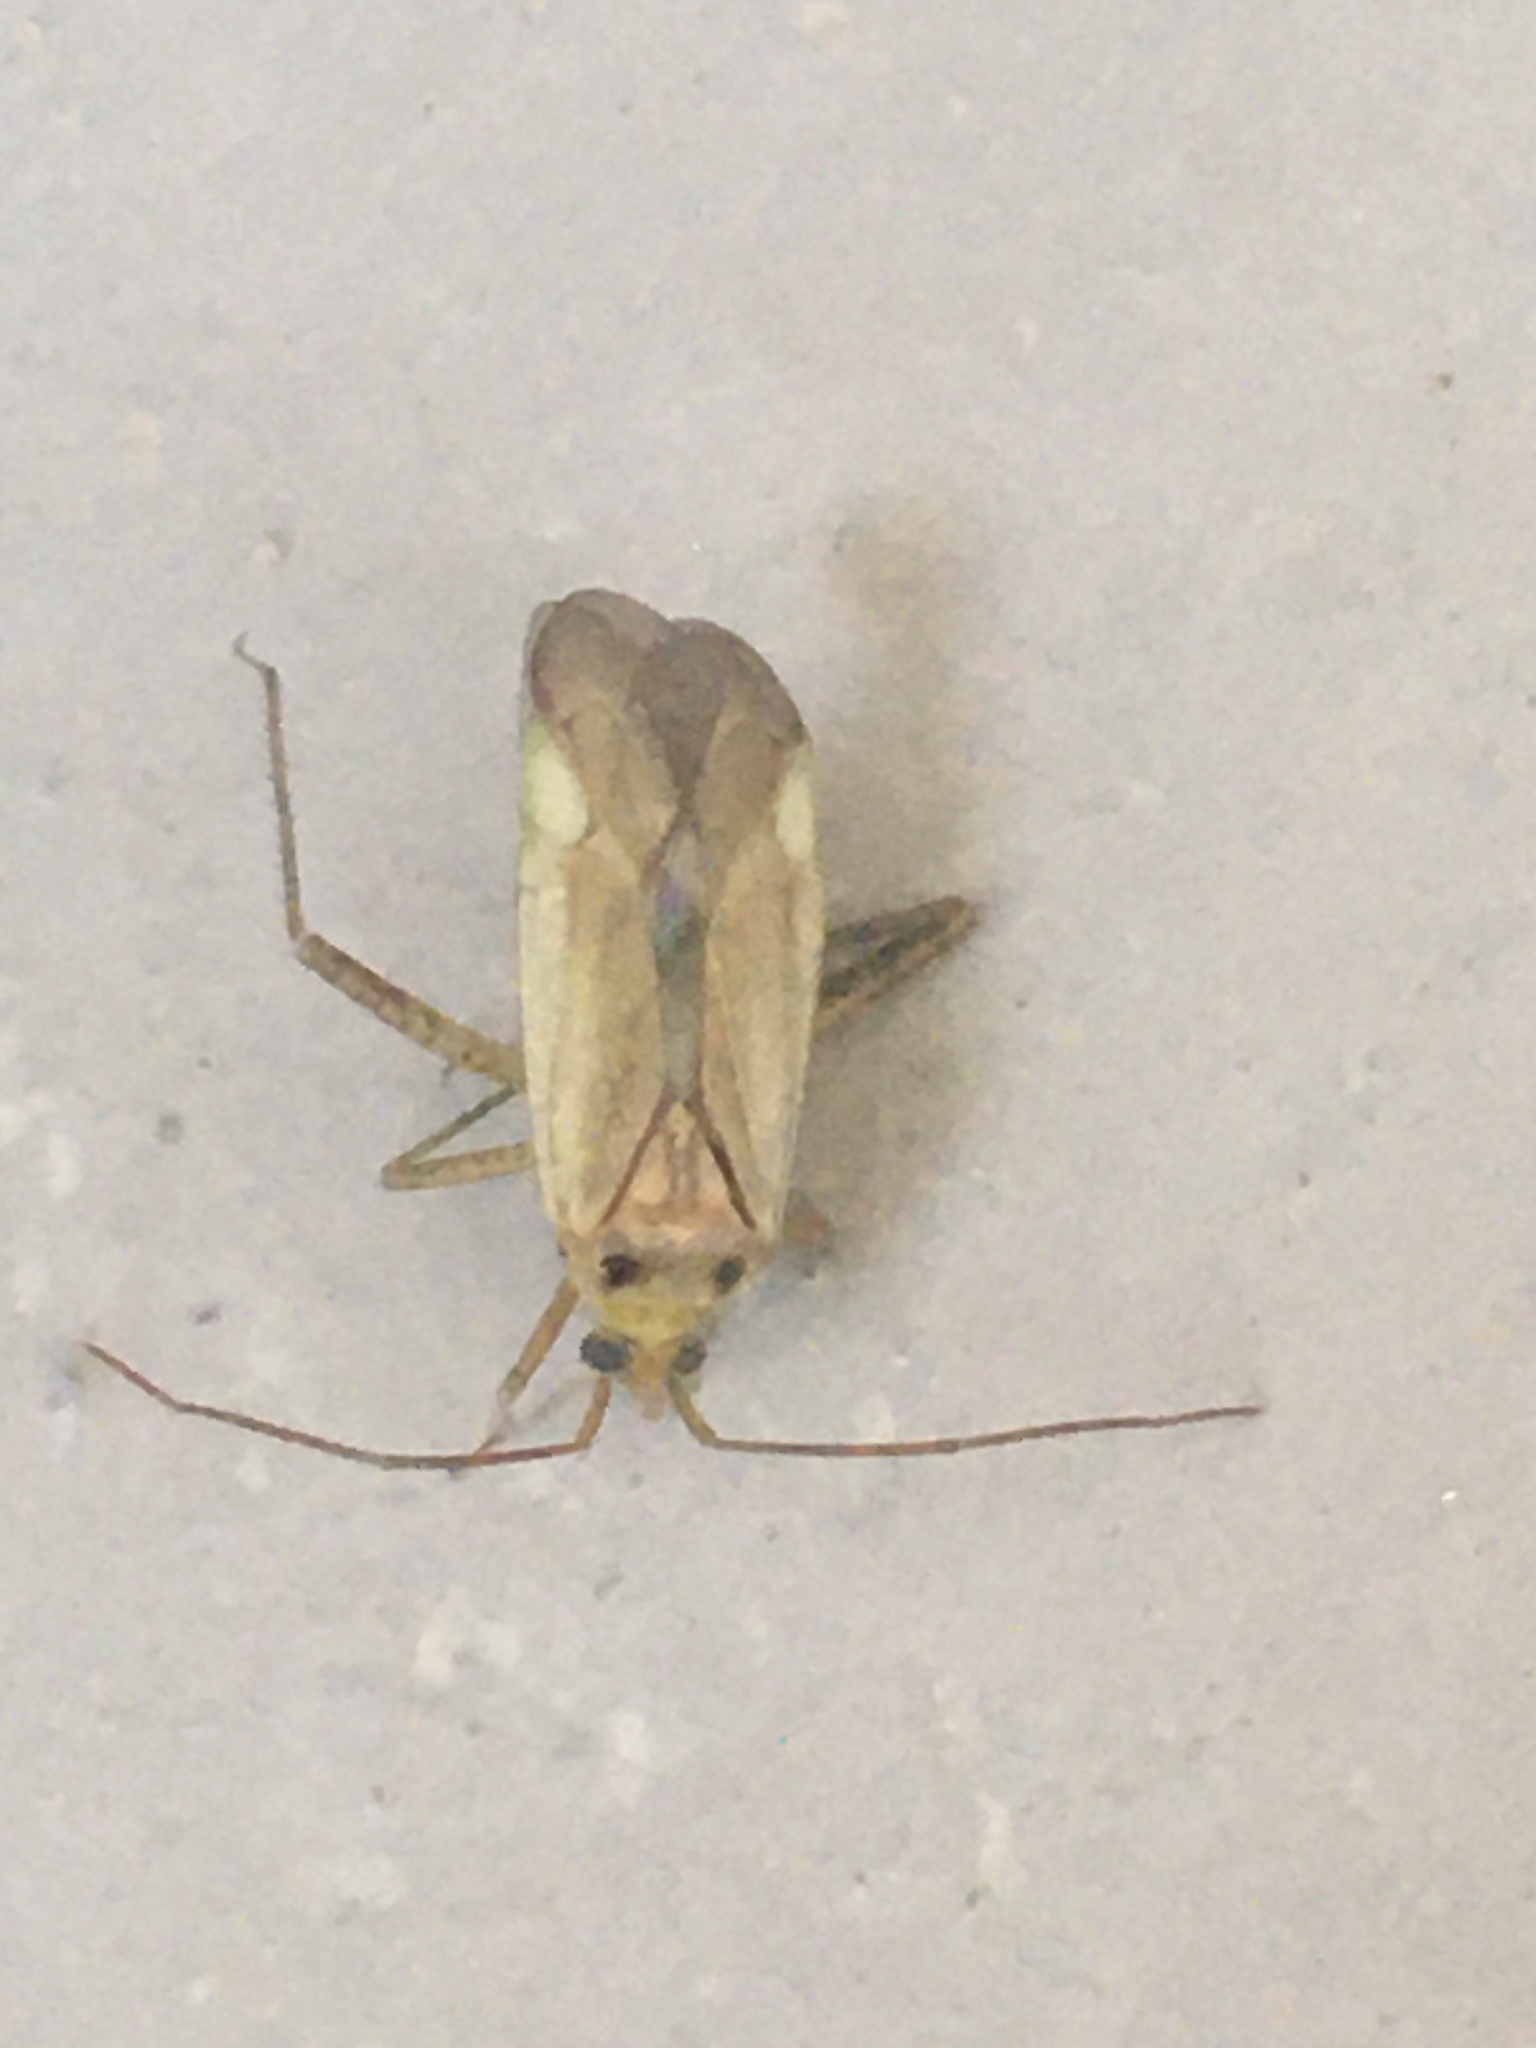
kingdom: Animalia
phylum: Arthropoda
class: Insecta
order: Hemiptera
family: Miridae
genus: Adelphocoris
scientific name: Adelphocoris lineolatus
